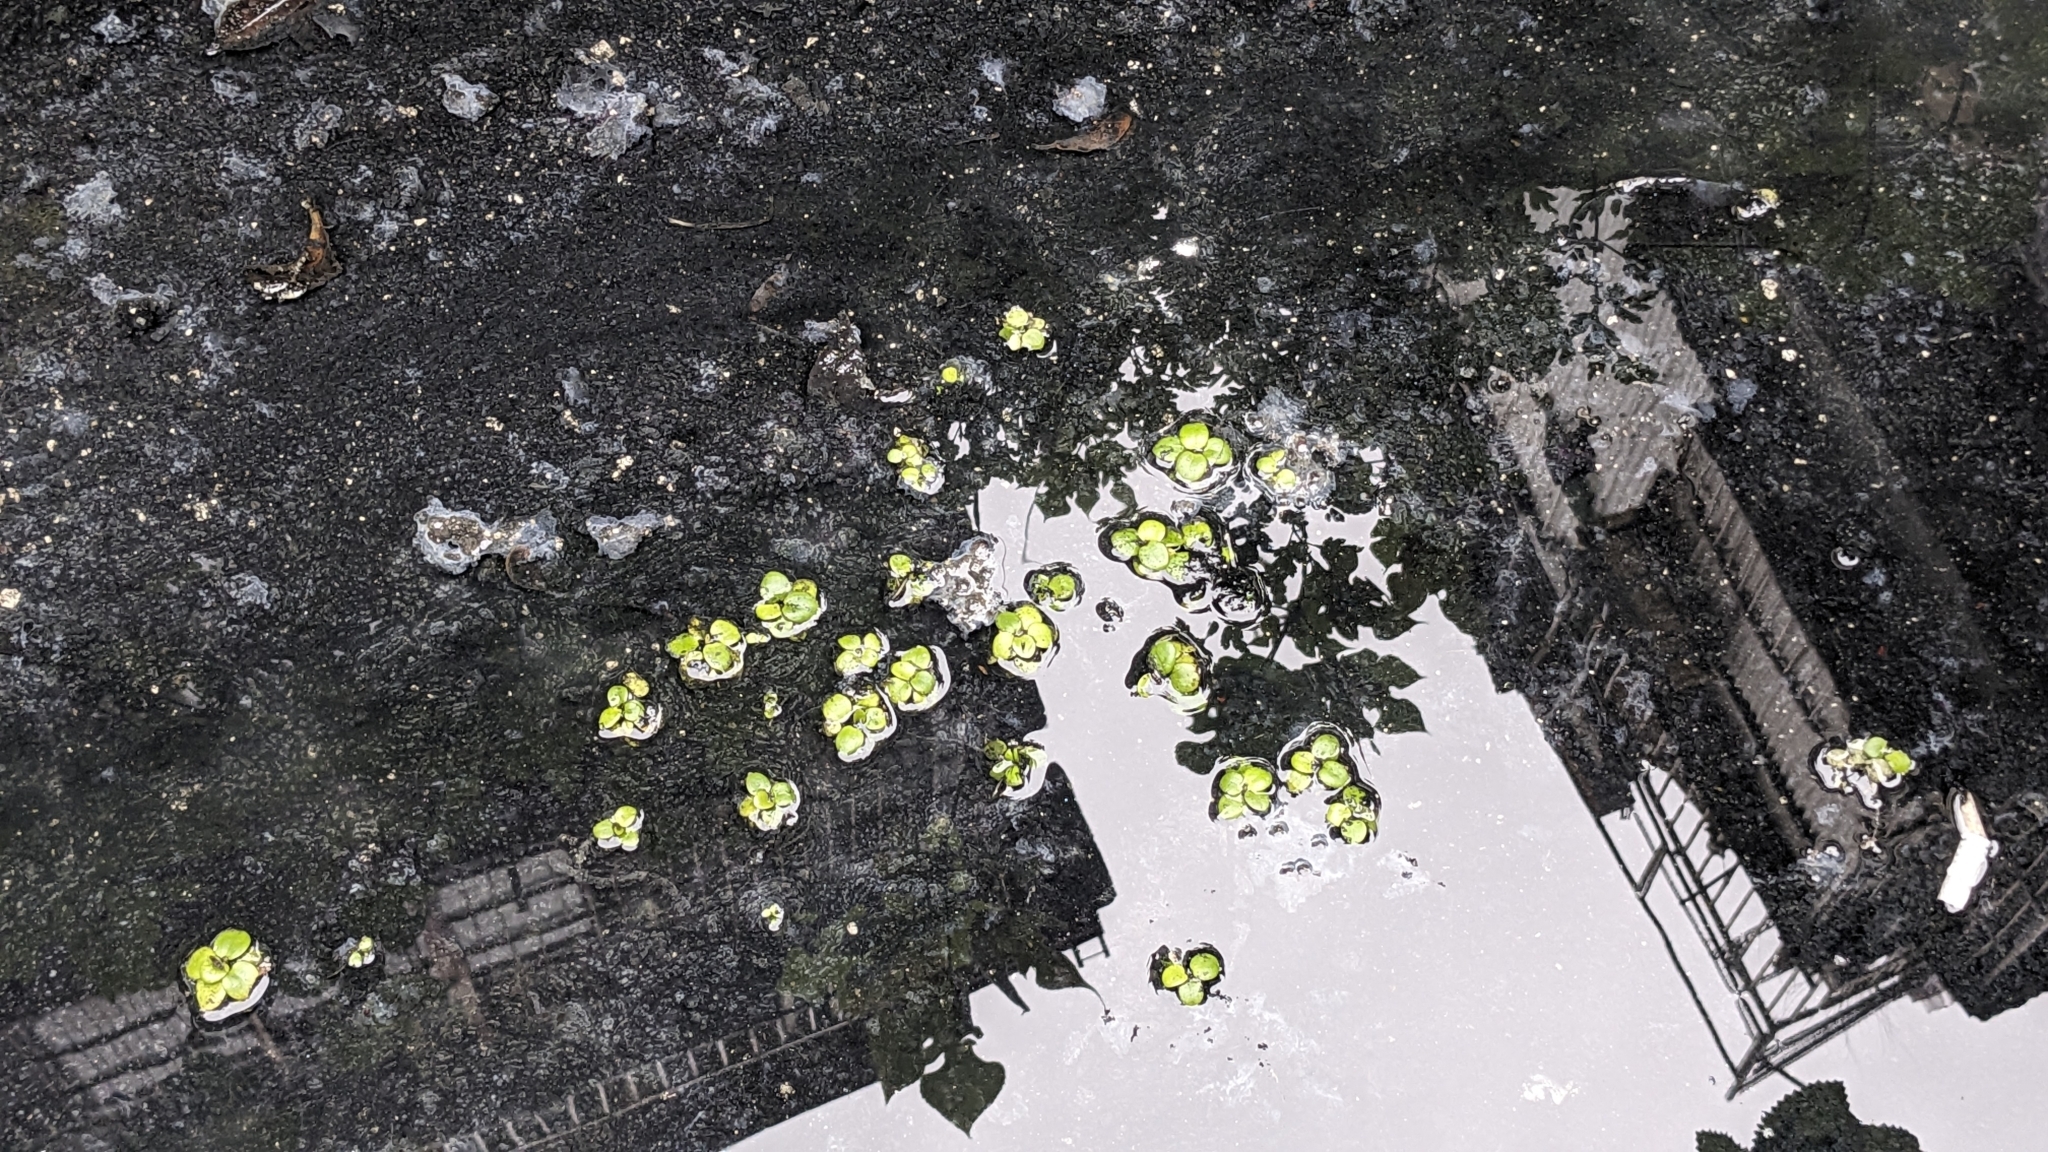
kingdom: Plantae
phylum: Tracheophyta
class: Liliopsida
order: Alismatales
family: Hydrocharitaceae
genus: Hydrocharis
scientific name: Hydrocharis laevigata
